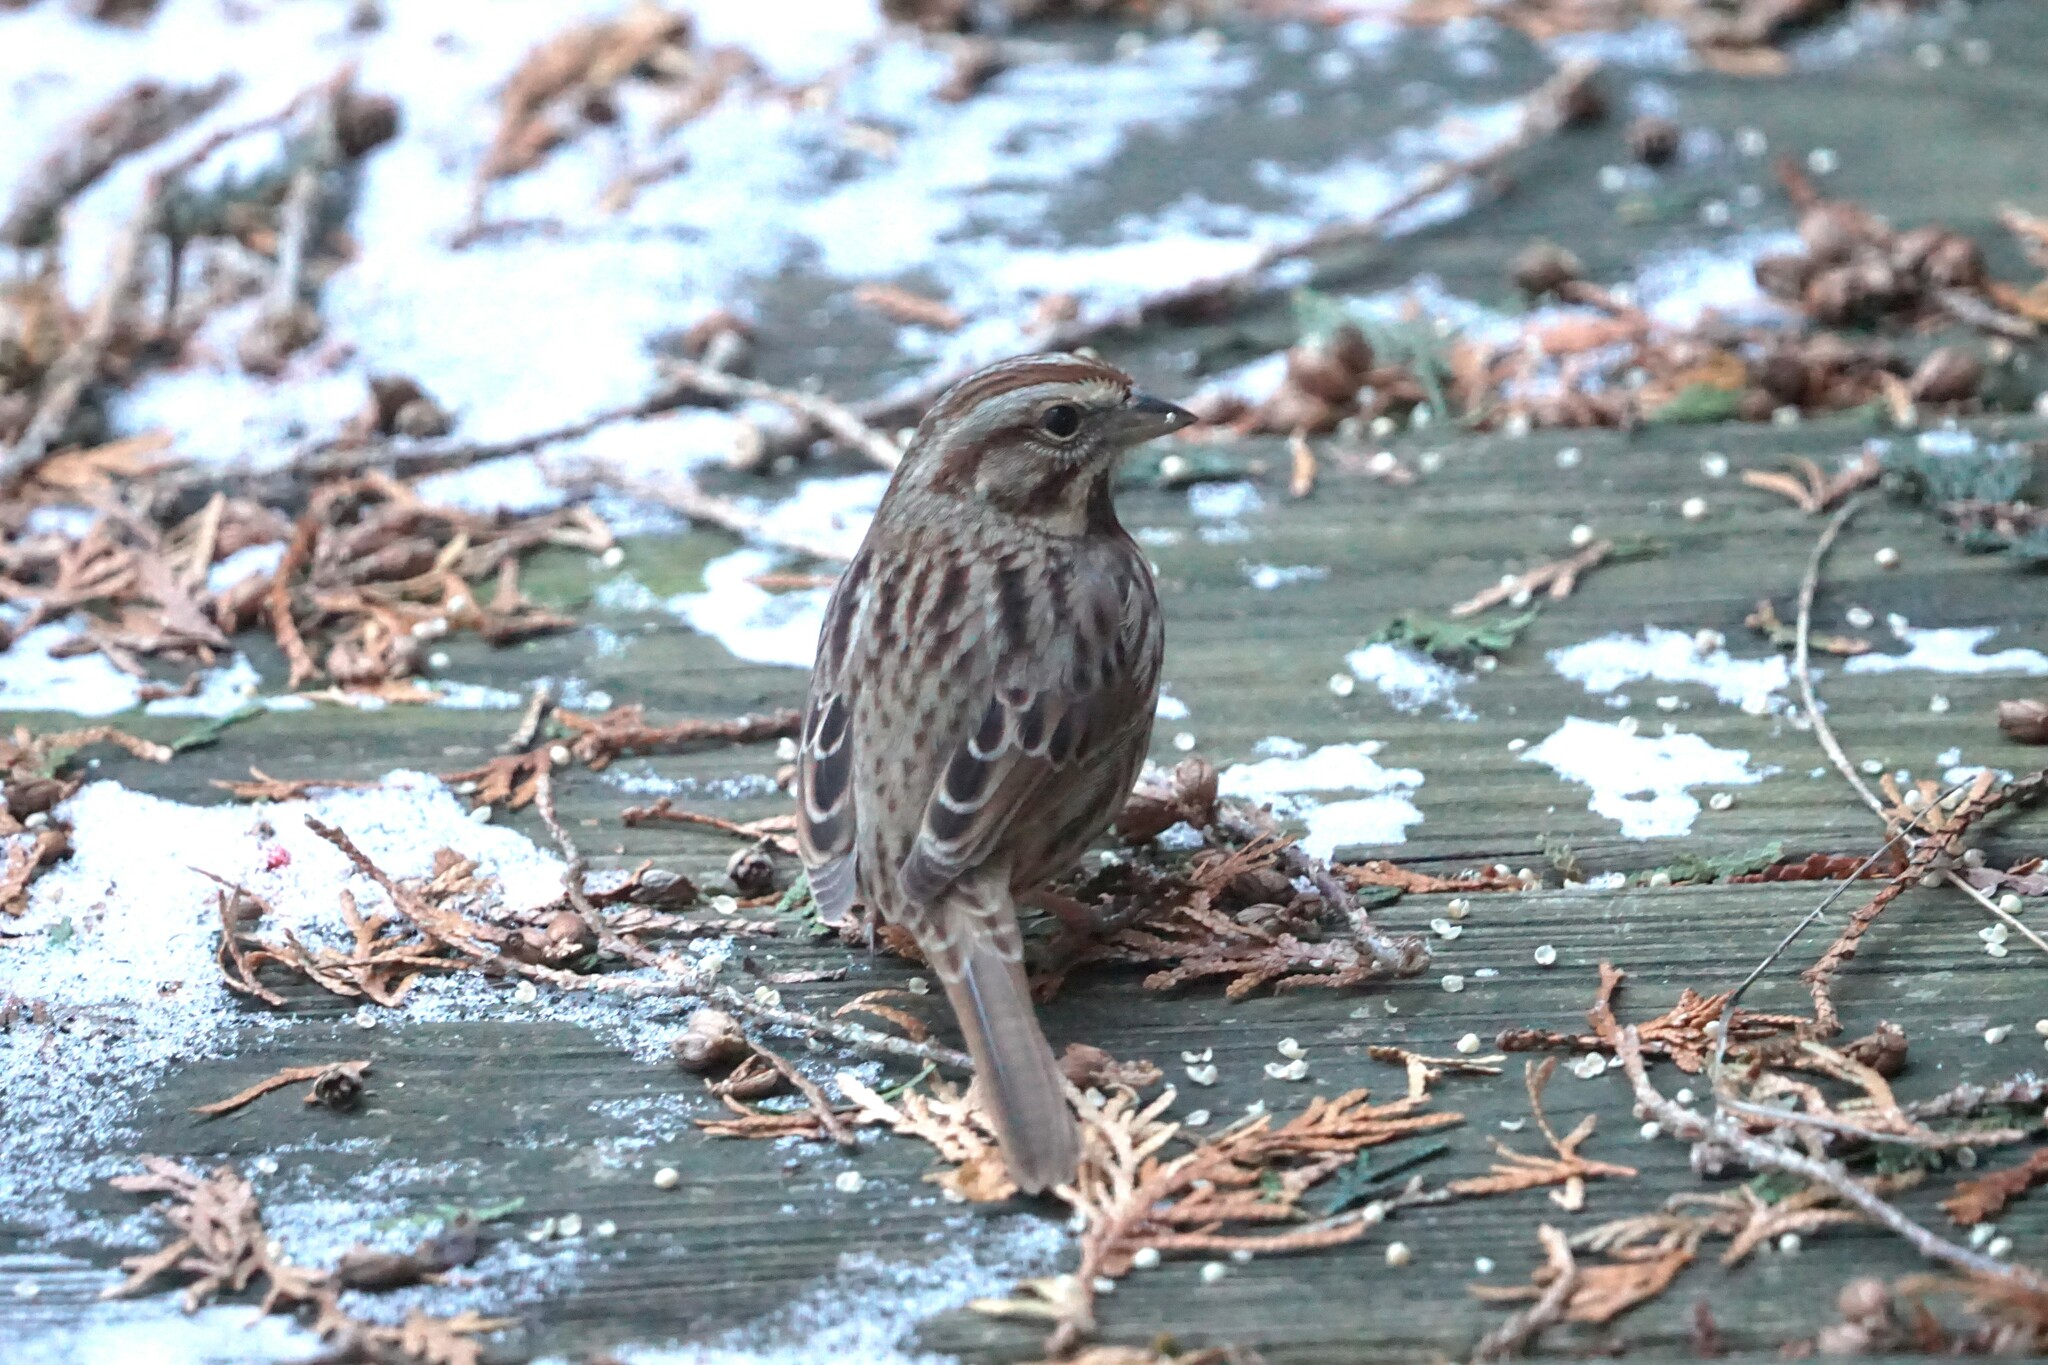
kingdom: Animalia
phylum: Chordata
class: Aves
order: Passeriformes
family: Passerellidae
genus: Melospiza
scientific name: Melospiza melodia
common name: Song sparrow
